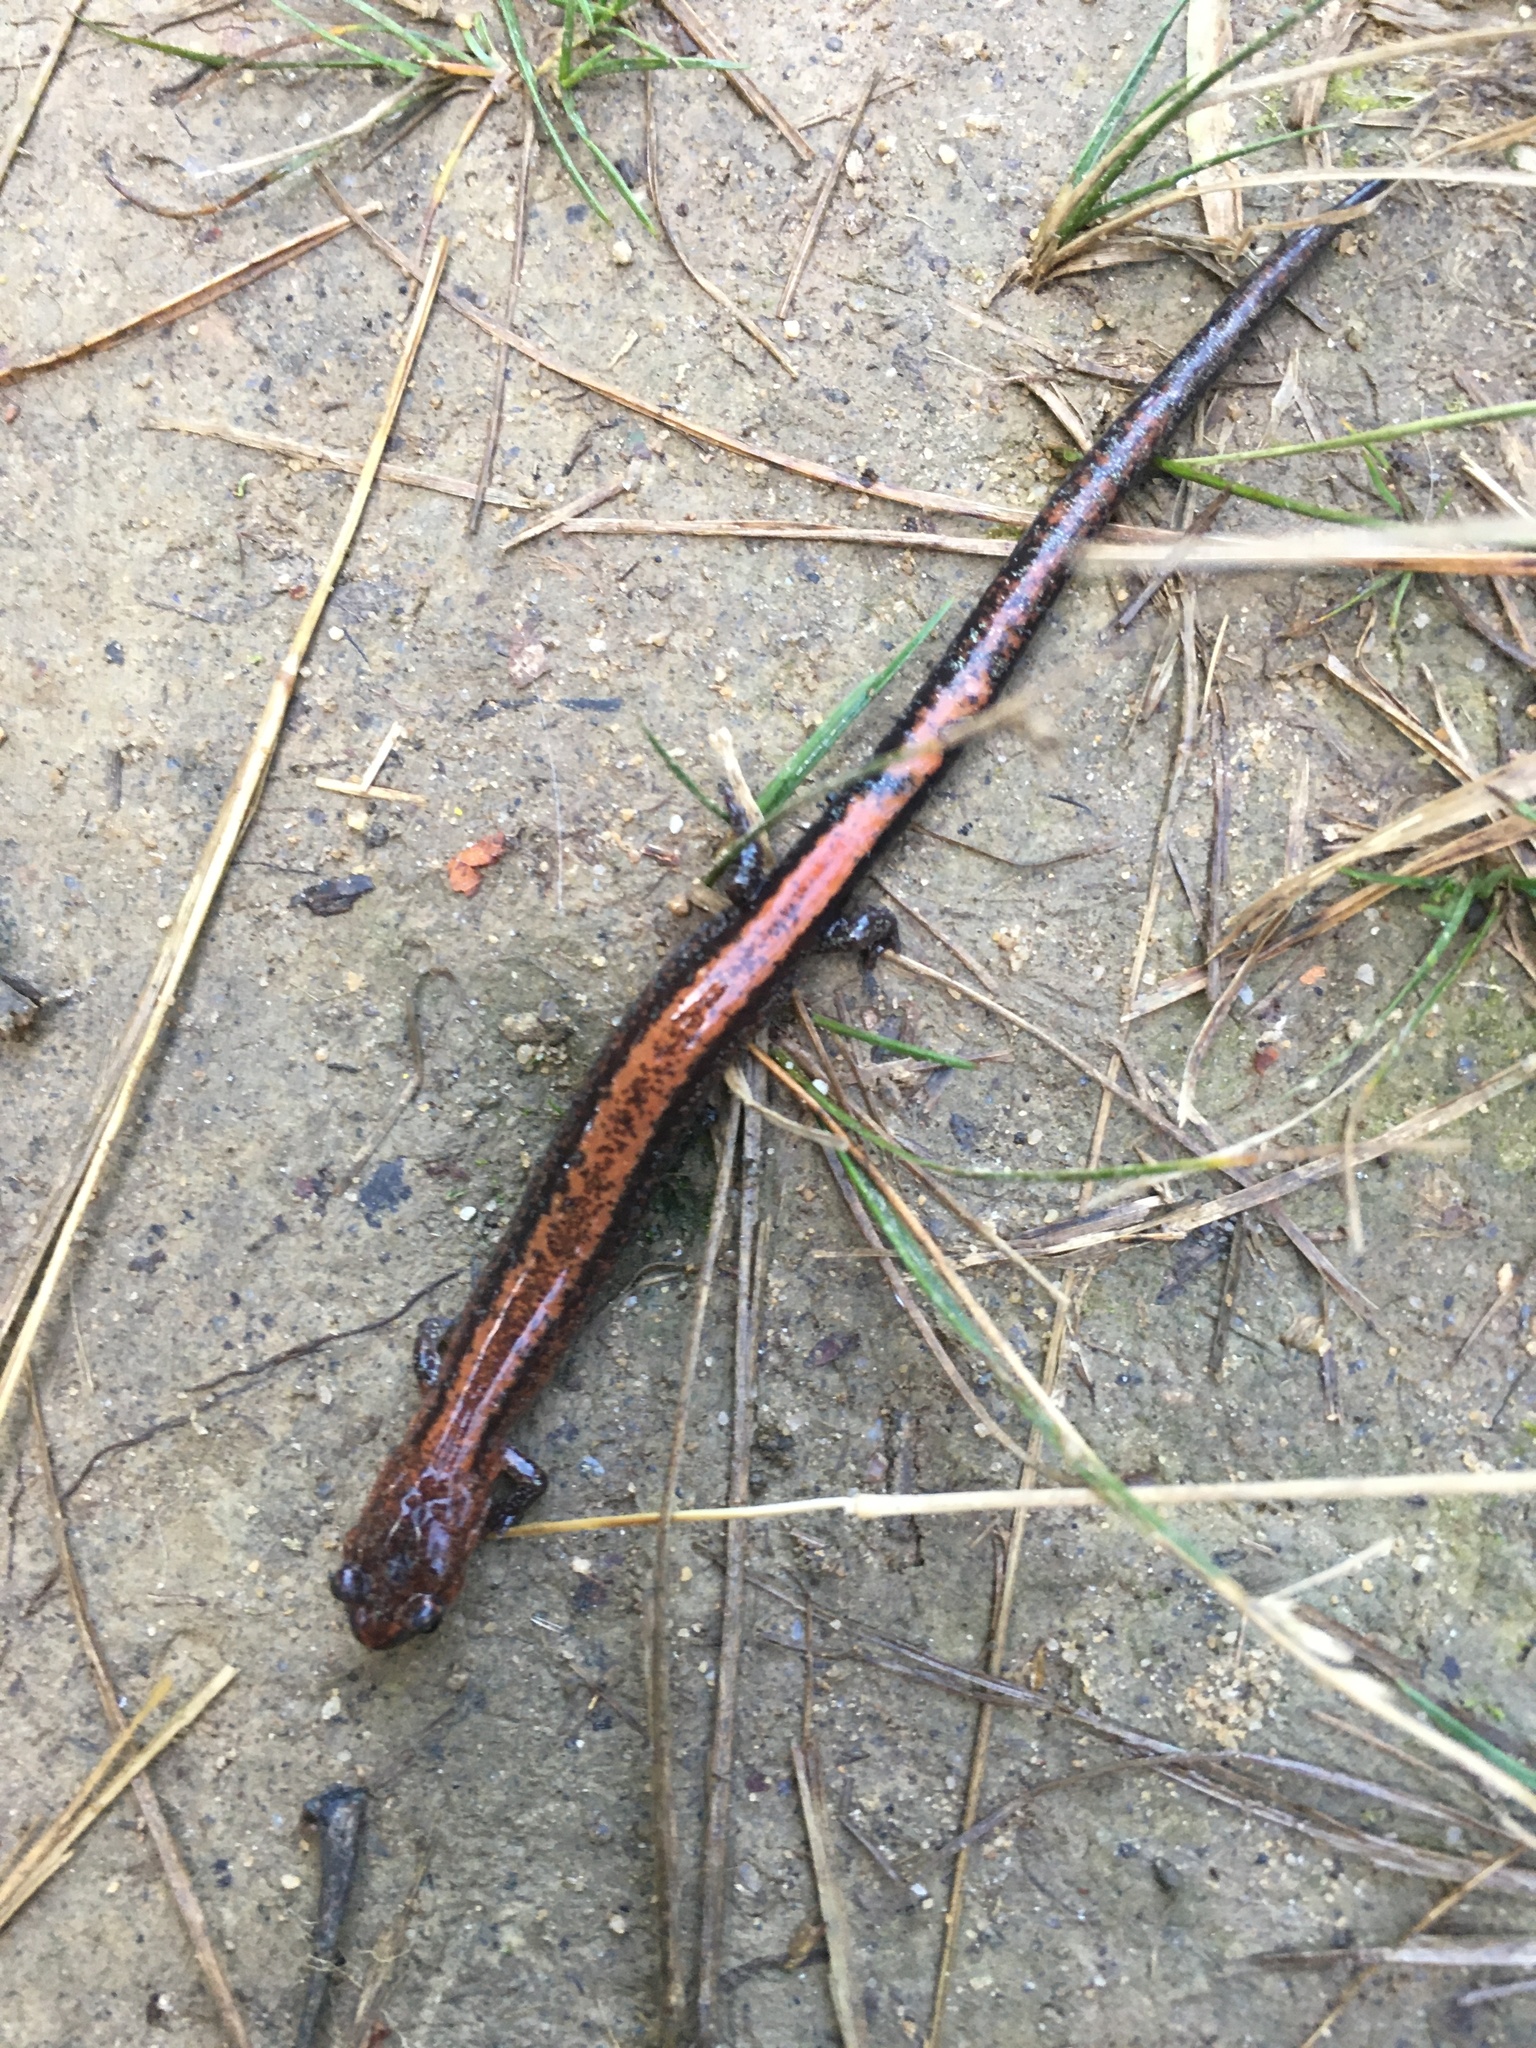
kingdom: Animalia
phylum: Chordata
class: Amphibia
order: Caudata
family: Plethodontidae
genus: Plethodon
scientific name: Plethodon cinereus
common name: Redback salamander
